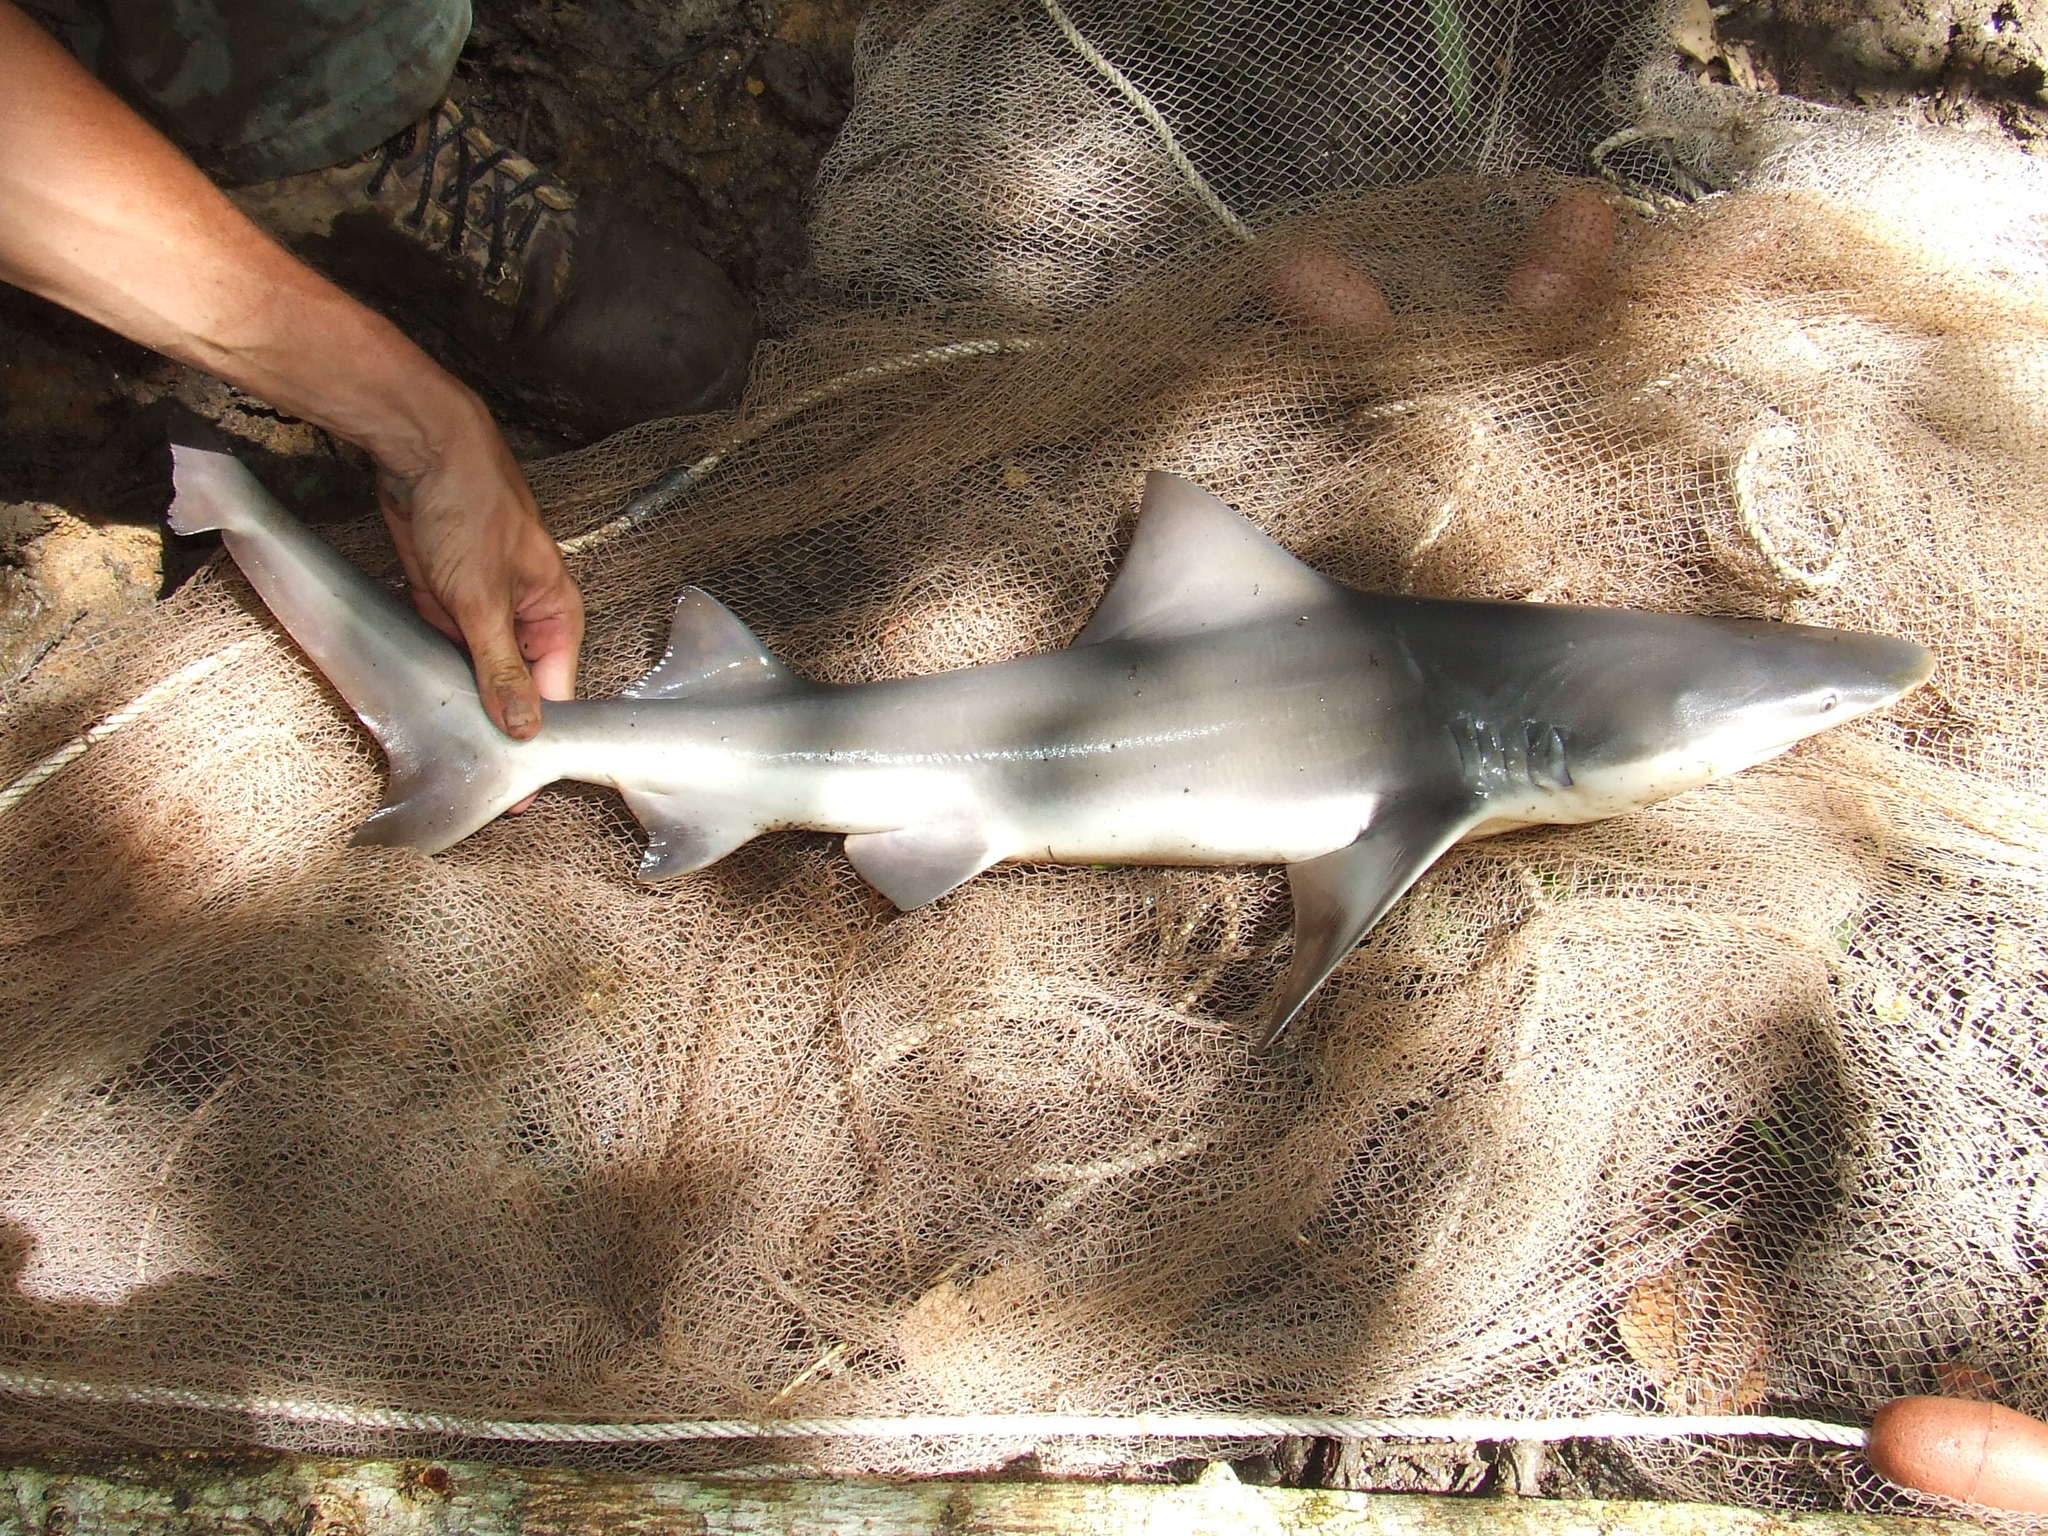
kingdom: Animalia
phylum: Chordata
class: Elasmobranchii
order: Carcharhiniformes
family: Carcharhinidae
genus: Glyphis
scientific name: Glyphis glyphis
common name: Speartooth shark
